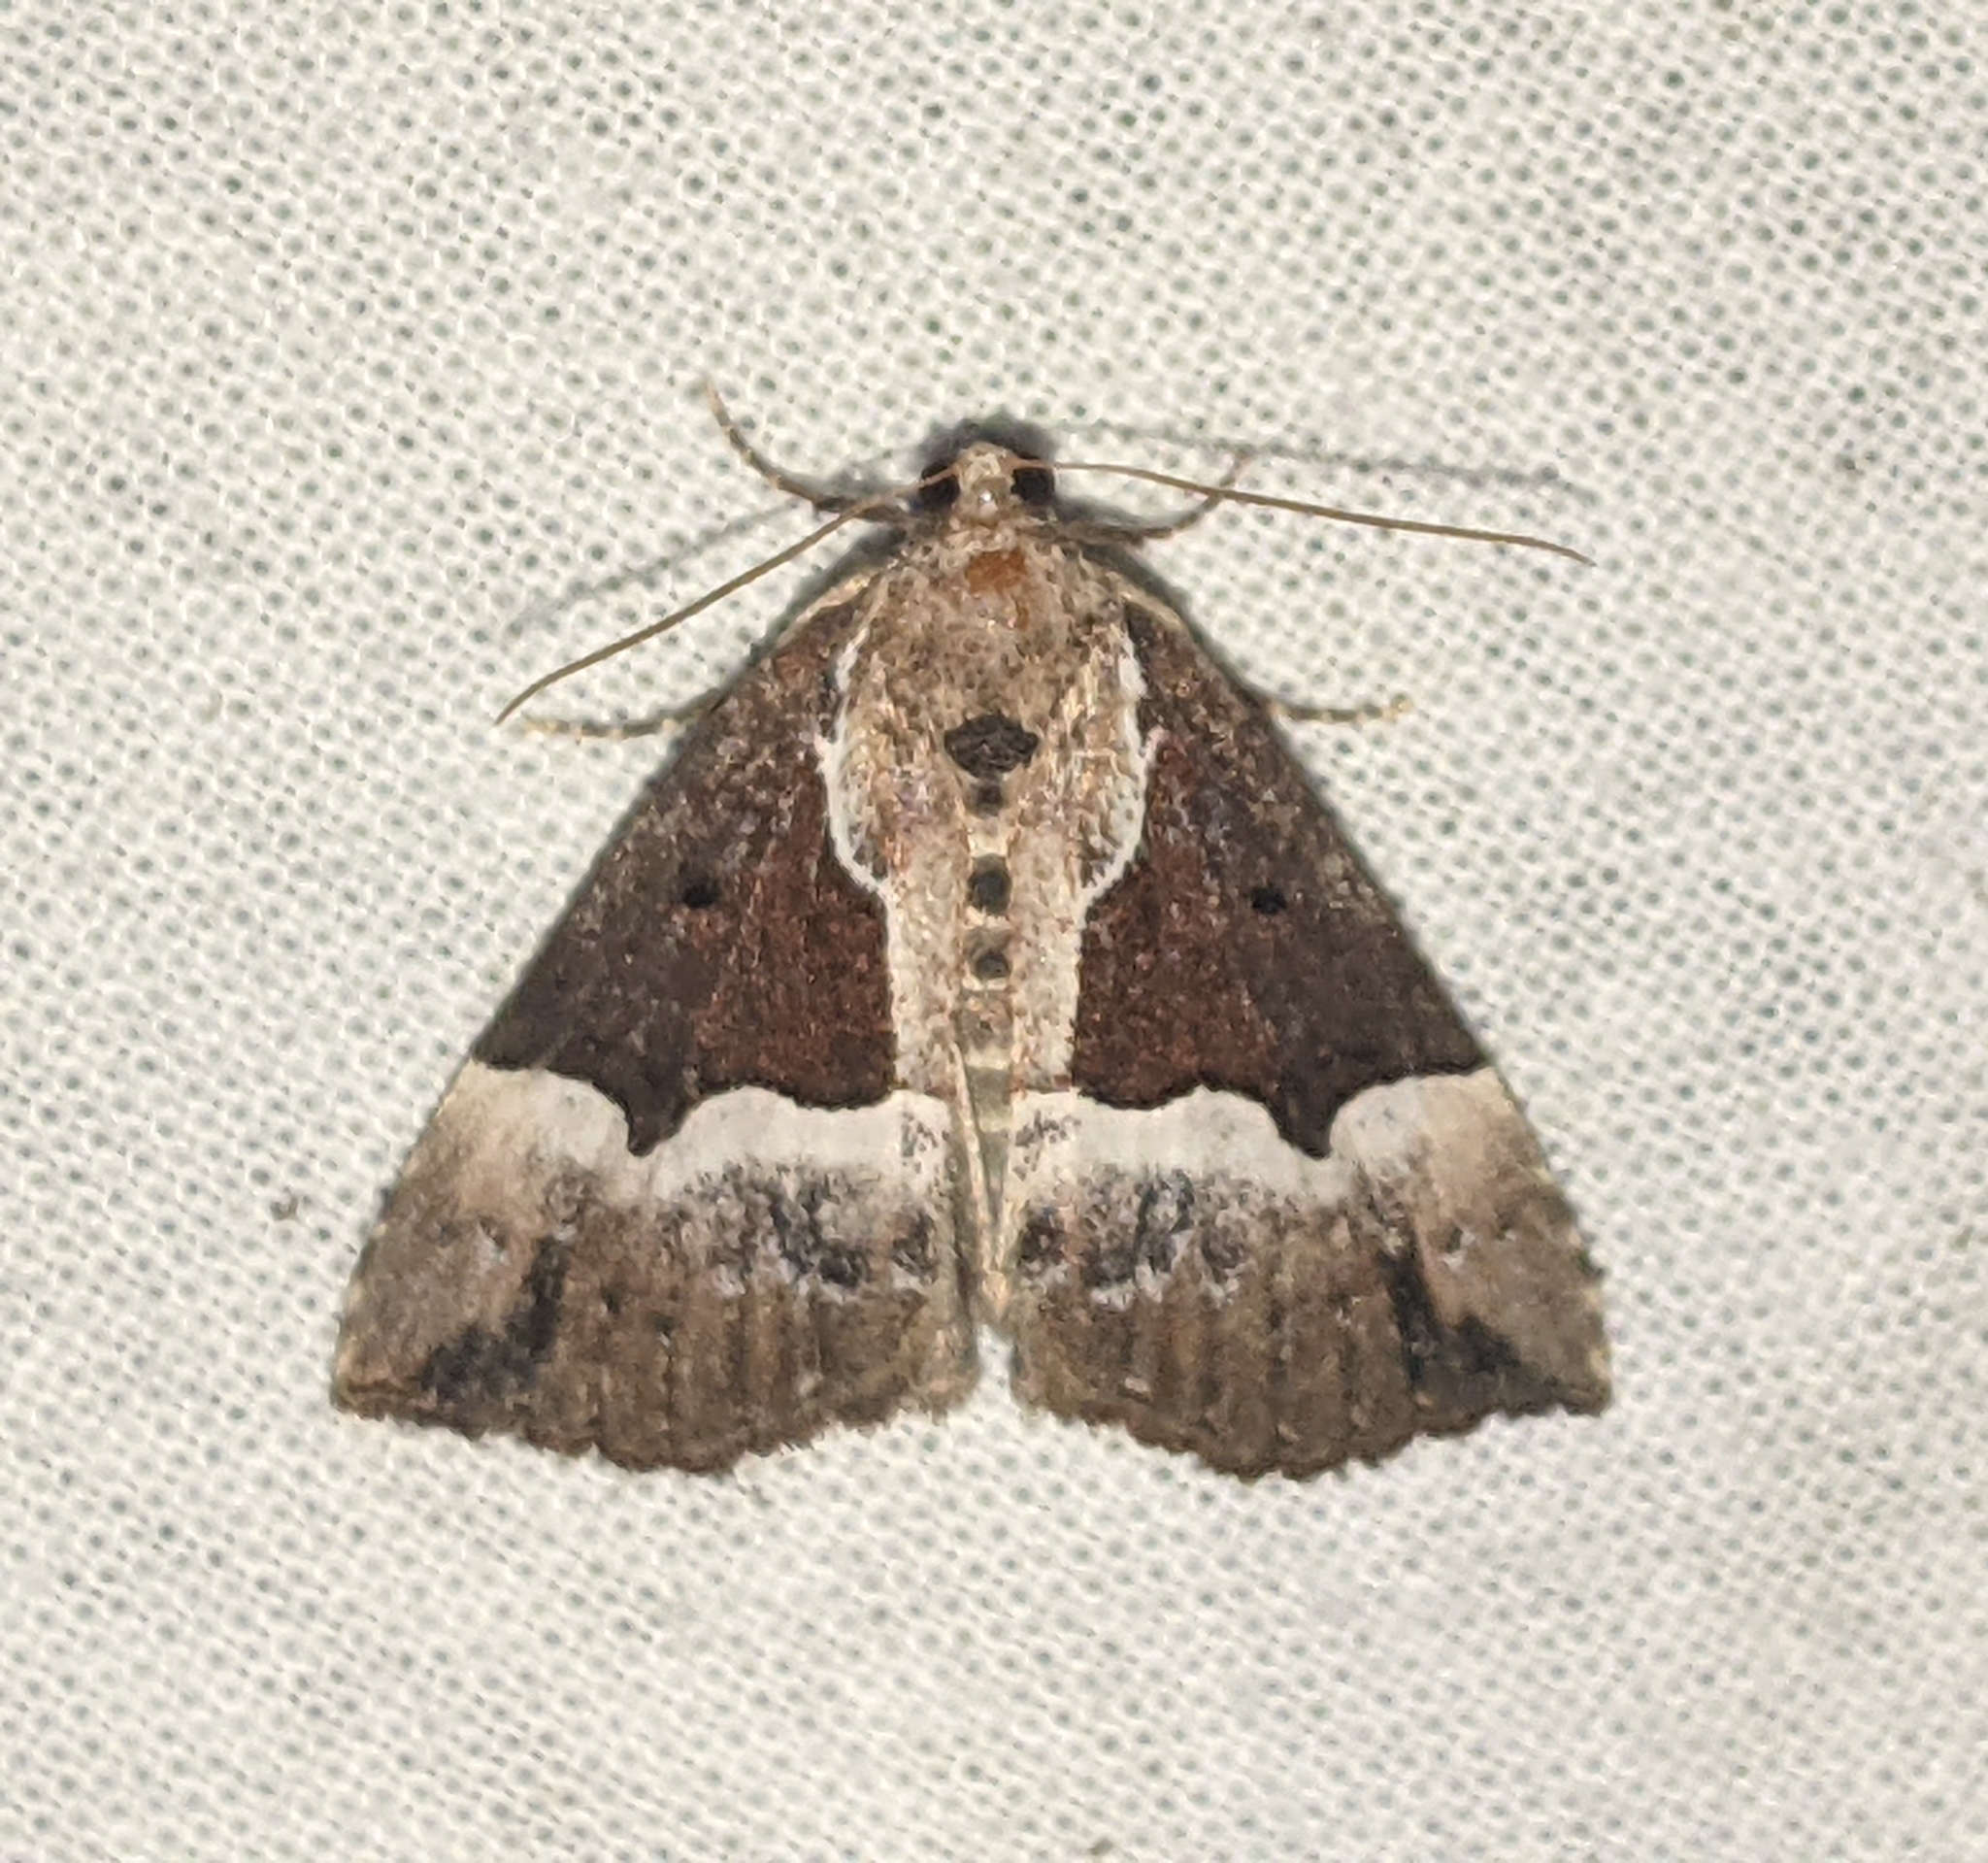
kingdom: Animalia
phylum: Arthropoda
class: Insecta
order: Lepidoptera
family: Erebidae
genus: Hypena
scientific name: Hypena bijugalis
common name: Dimorphic bomolocha moth
